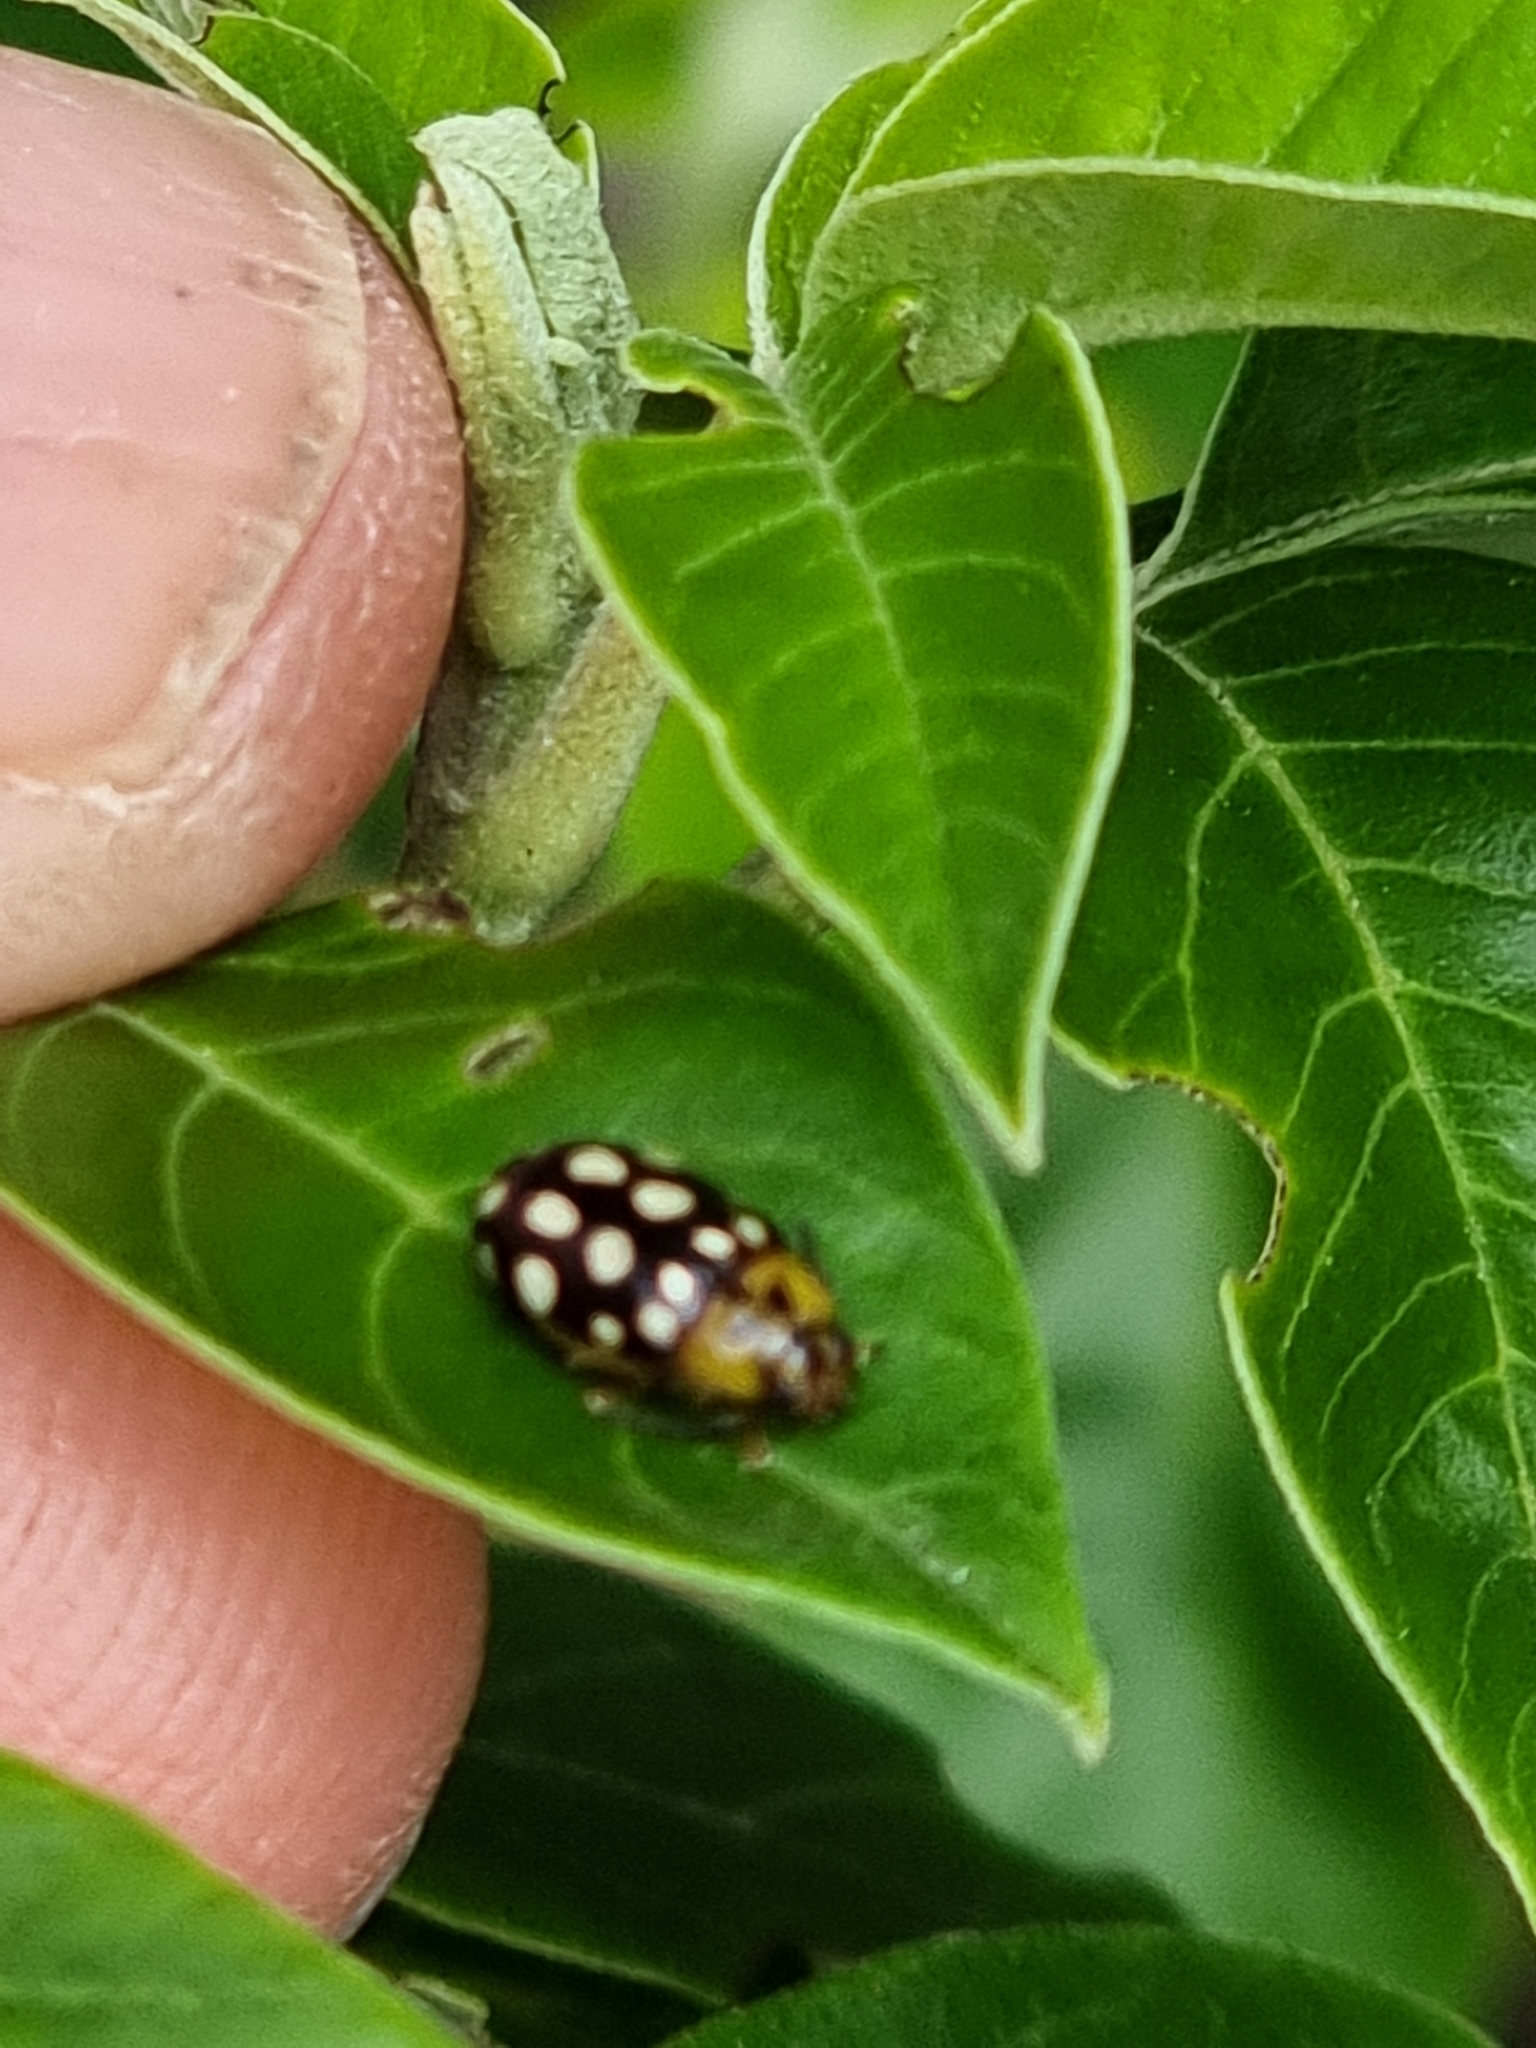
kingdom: Animalia
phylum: Arthropoda
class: Insecta
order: Coleoptera
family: Chrysomelidae
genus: Chalcolampra
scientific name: Chalcolampra octodecimguttata
